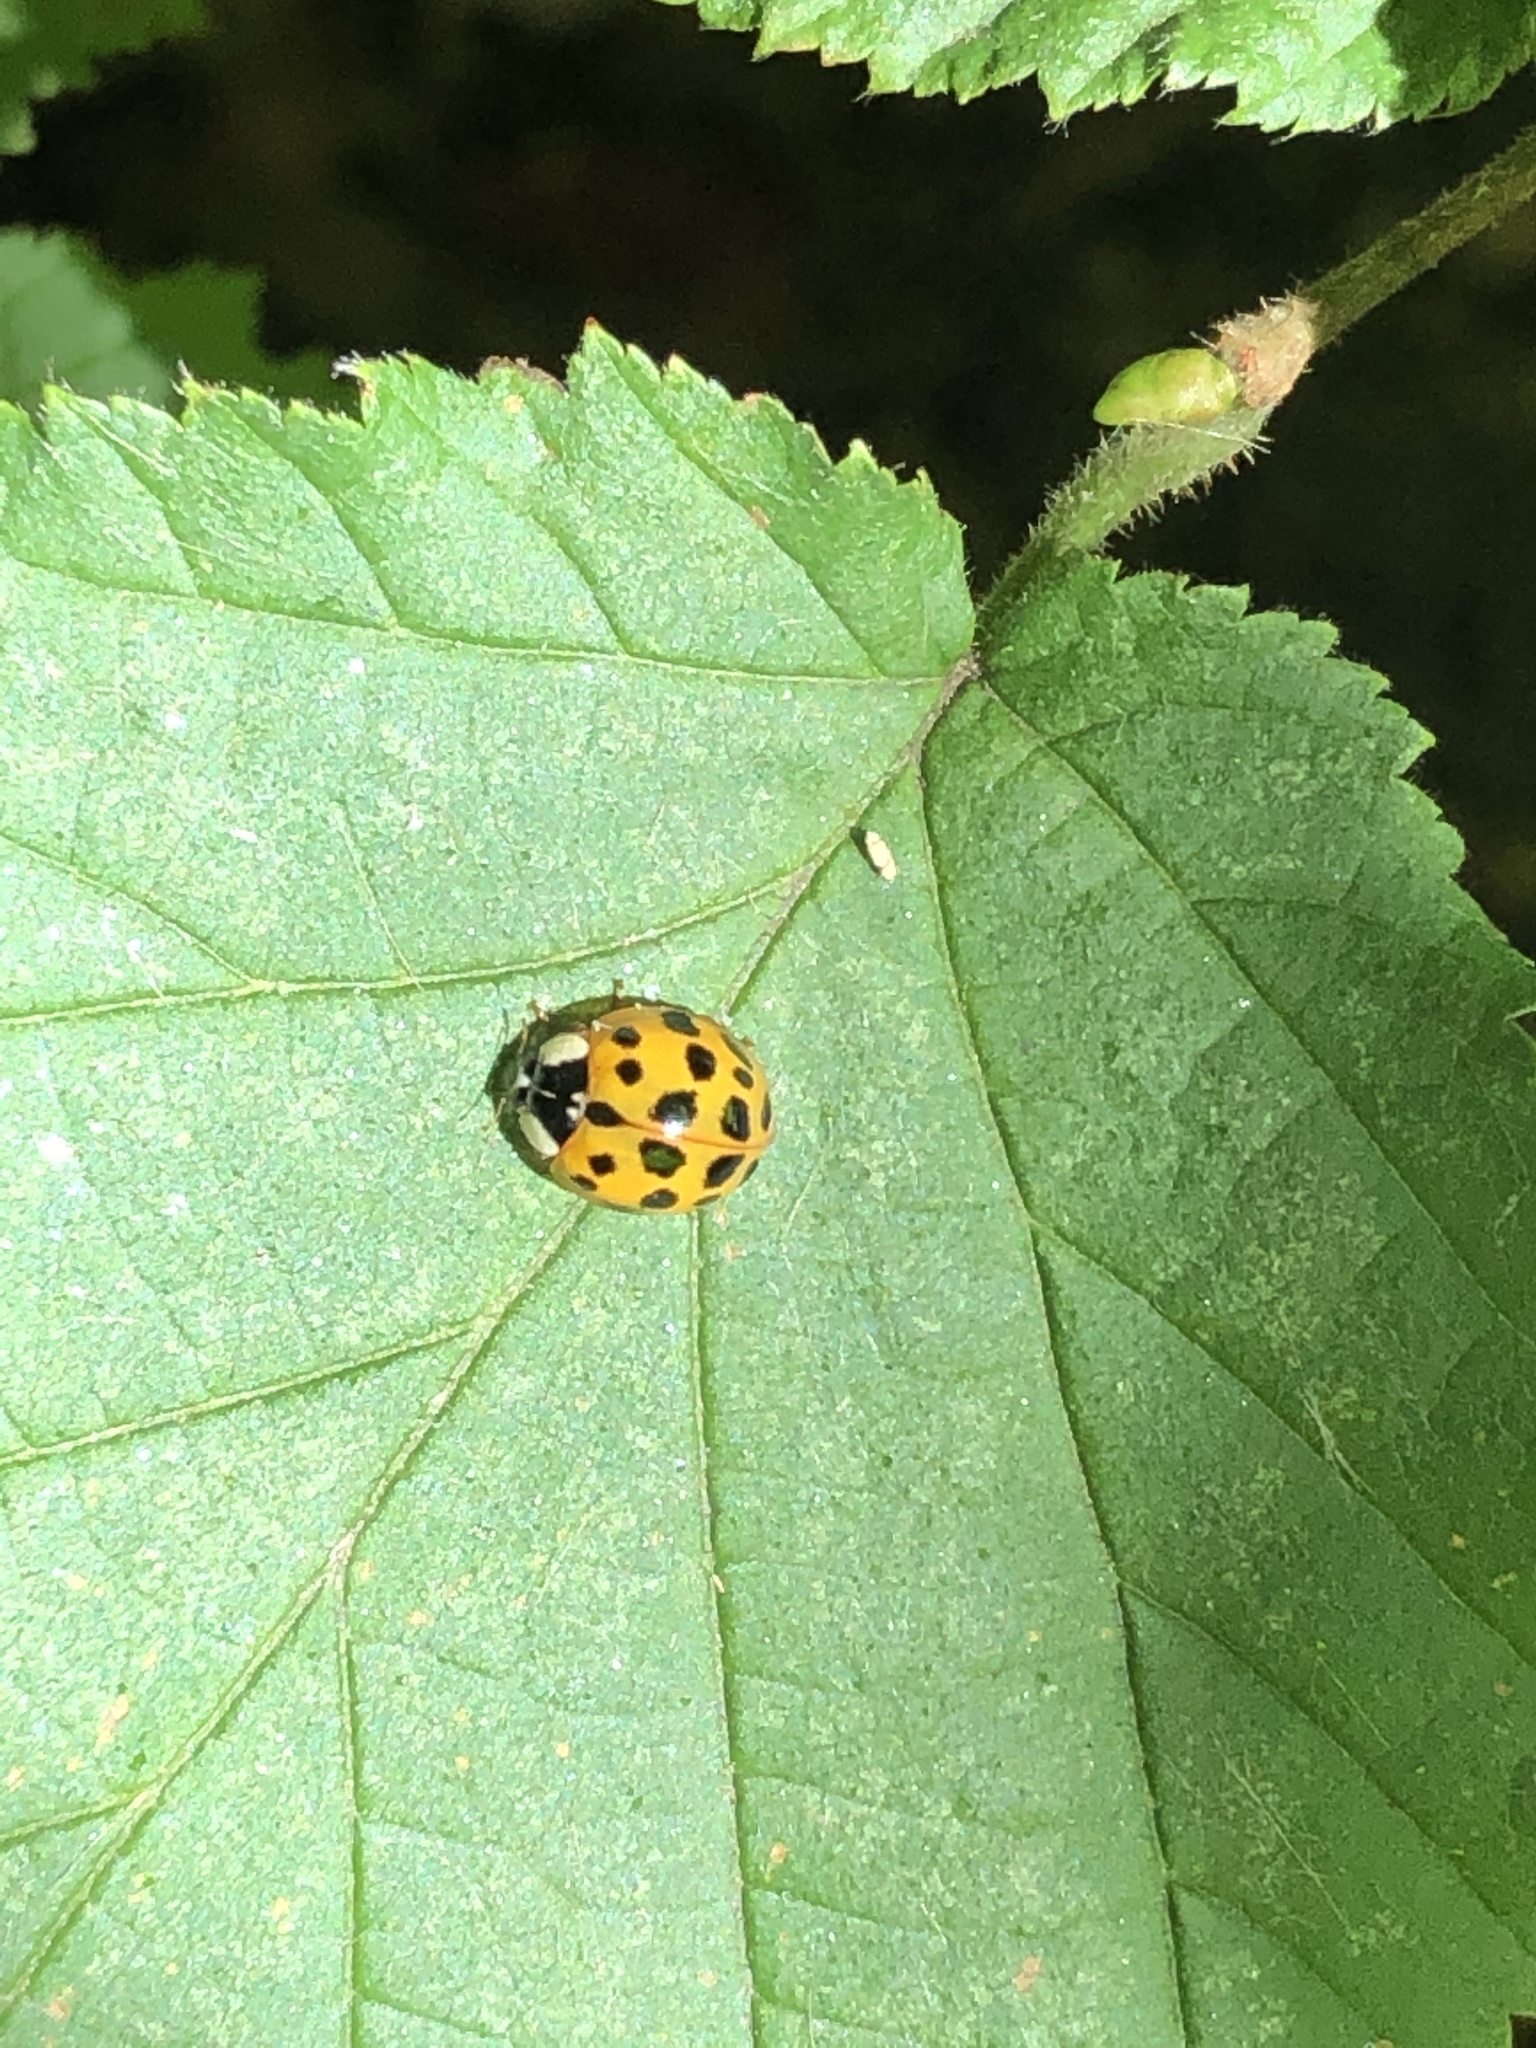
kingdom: Animalia
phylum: Arthropoda
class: Insecta
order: Coleoptera
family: Coccinellidae
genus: Harmonia
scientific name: Harmonia axyridis
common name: Harlequin ladybird
